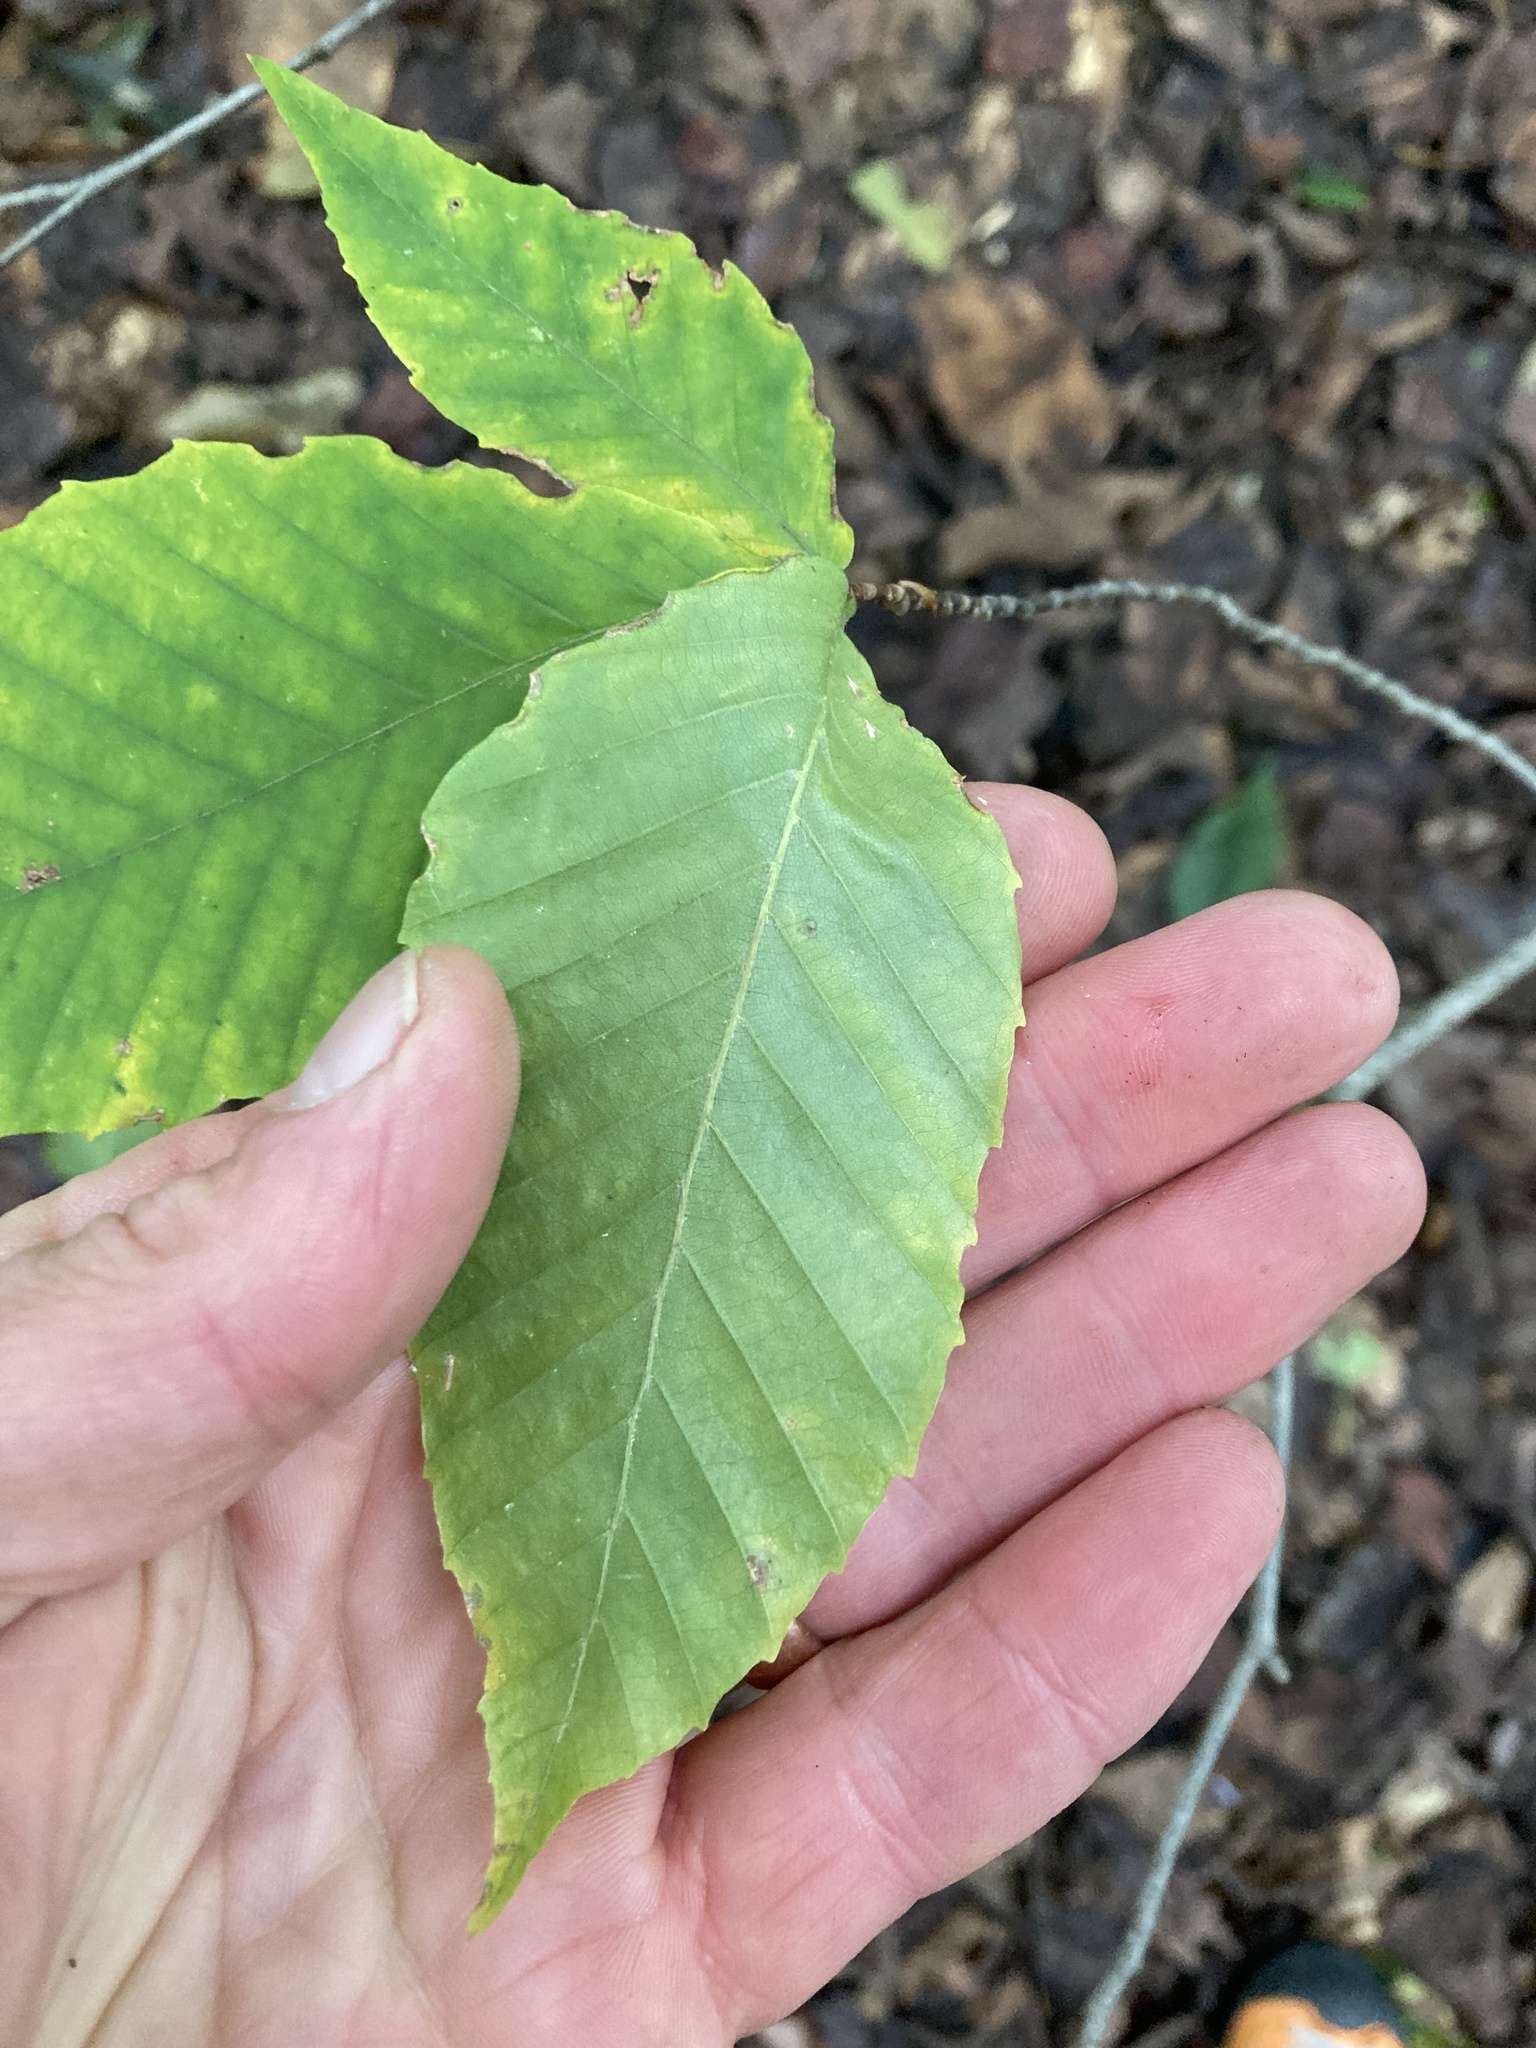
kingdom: Plantae
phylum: Tracheophyta
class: Magnoliopsida
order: Fagales
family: Fagaceae
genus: Fagus
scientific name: Fagus grandifolia
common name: American beech
